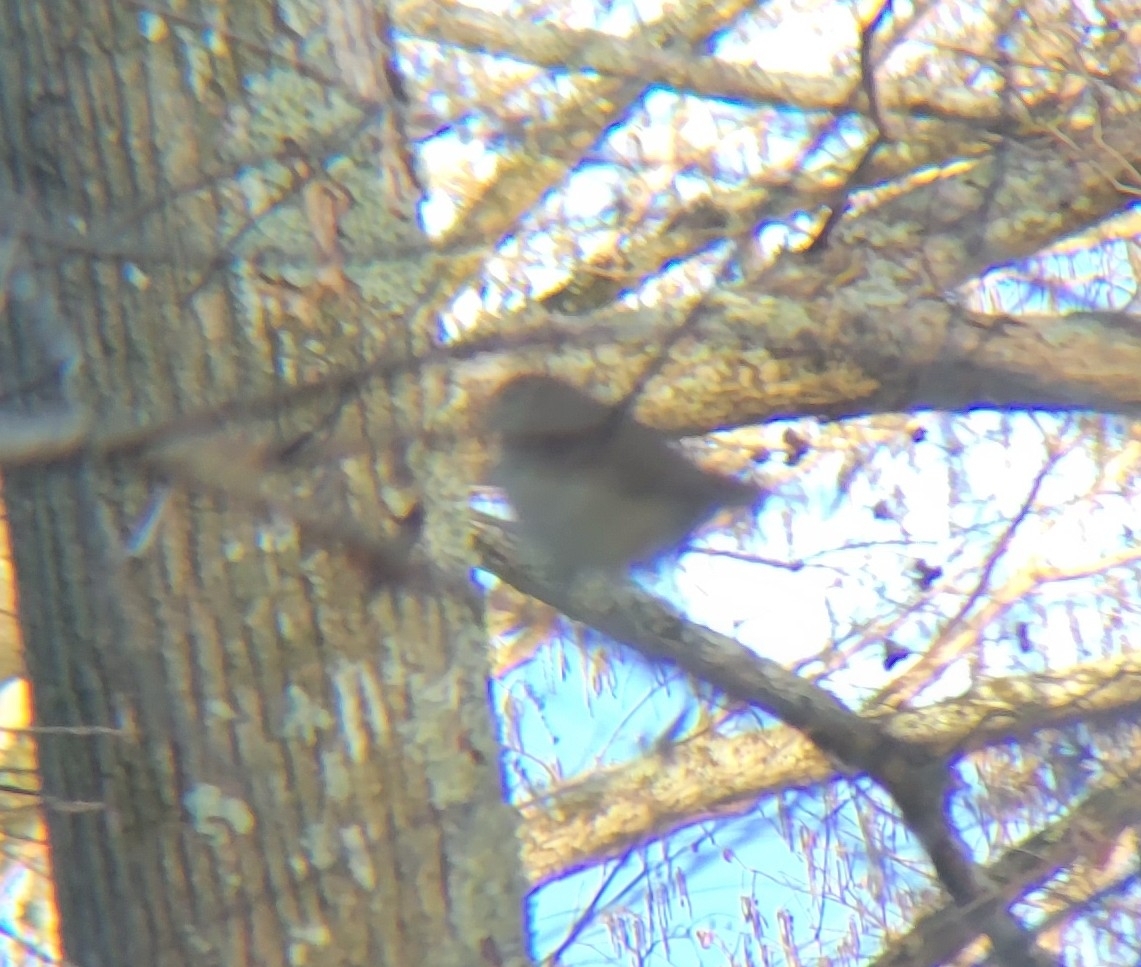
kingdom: Animalia
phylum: Chordata
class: Aves
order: Passeriformes
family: Turdidae
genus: Catharus
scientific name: Catharus guttatus
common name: Hermit thrush
